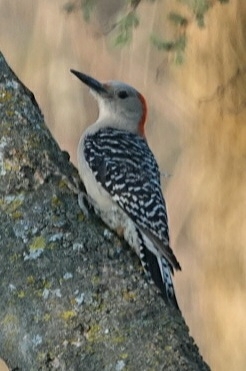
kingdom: Animalia
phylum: Chordata
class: Aves
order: Piciformes
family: Picidae
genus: Melanerpes
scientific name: Melanerpes carolinus
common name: Red-bellied woodpecker
